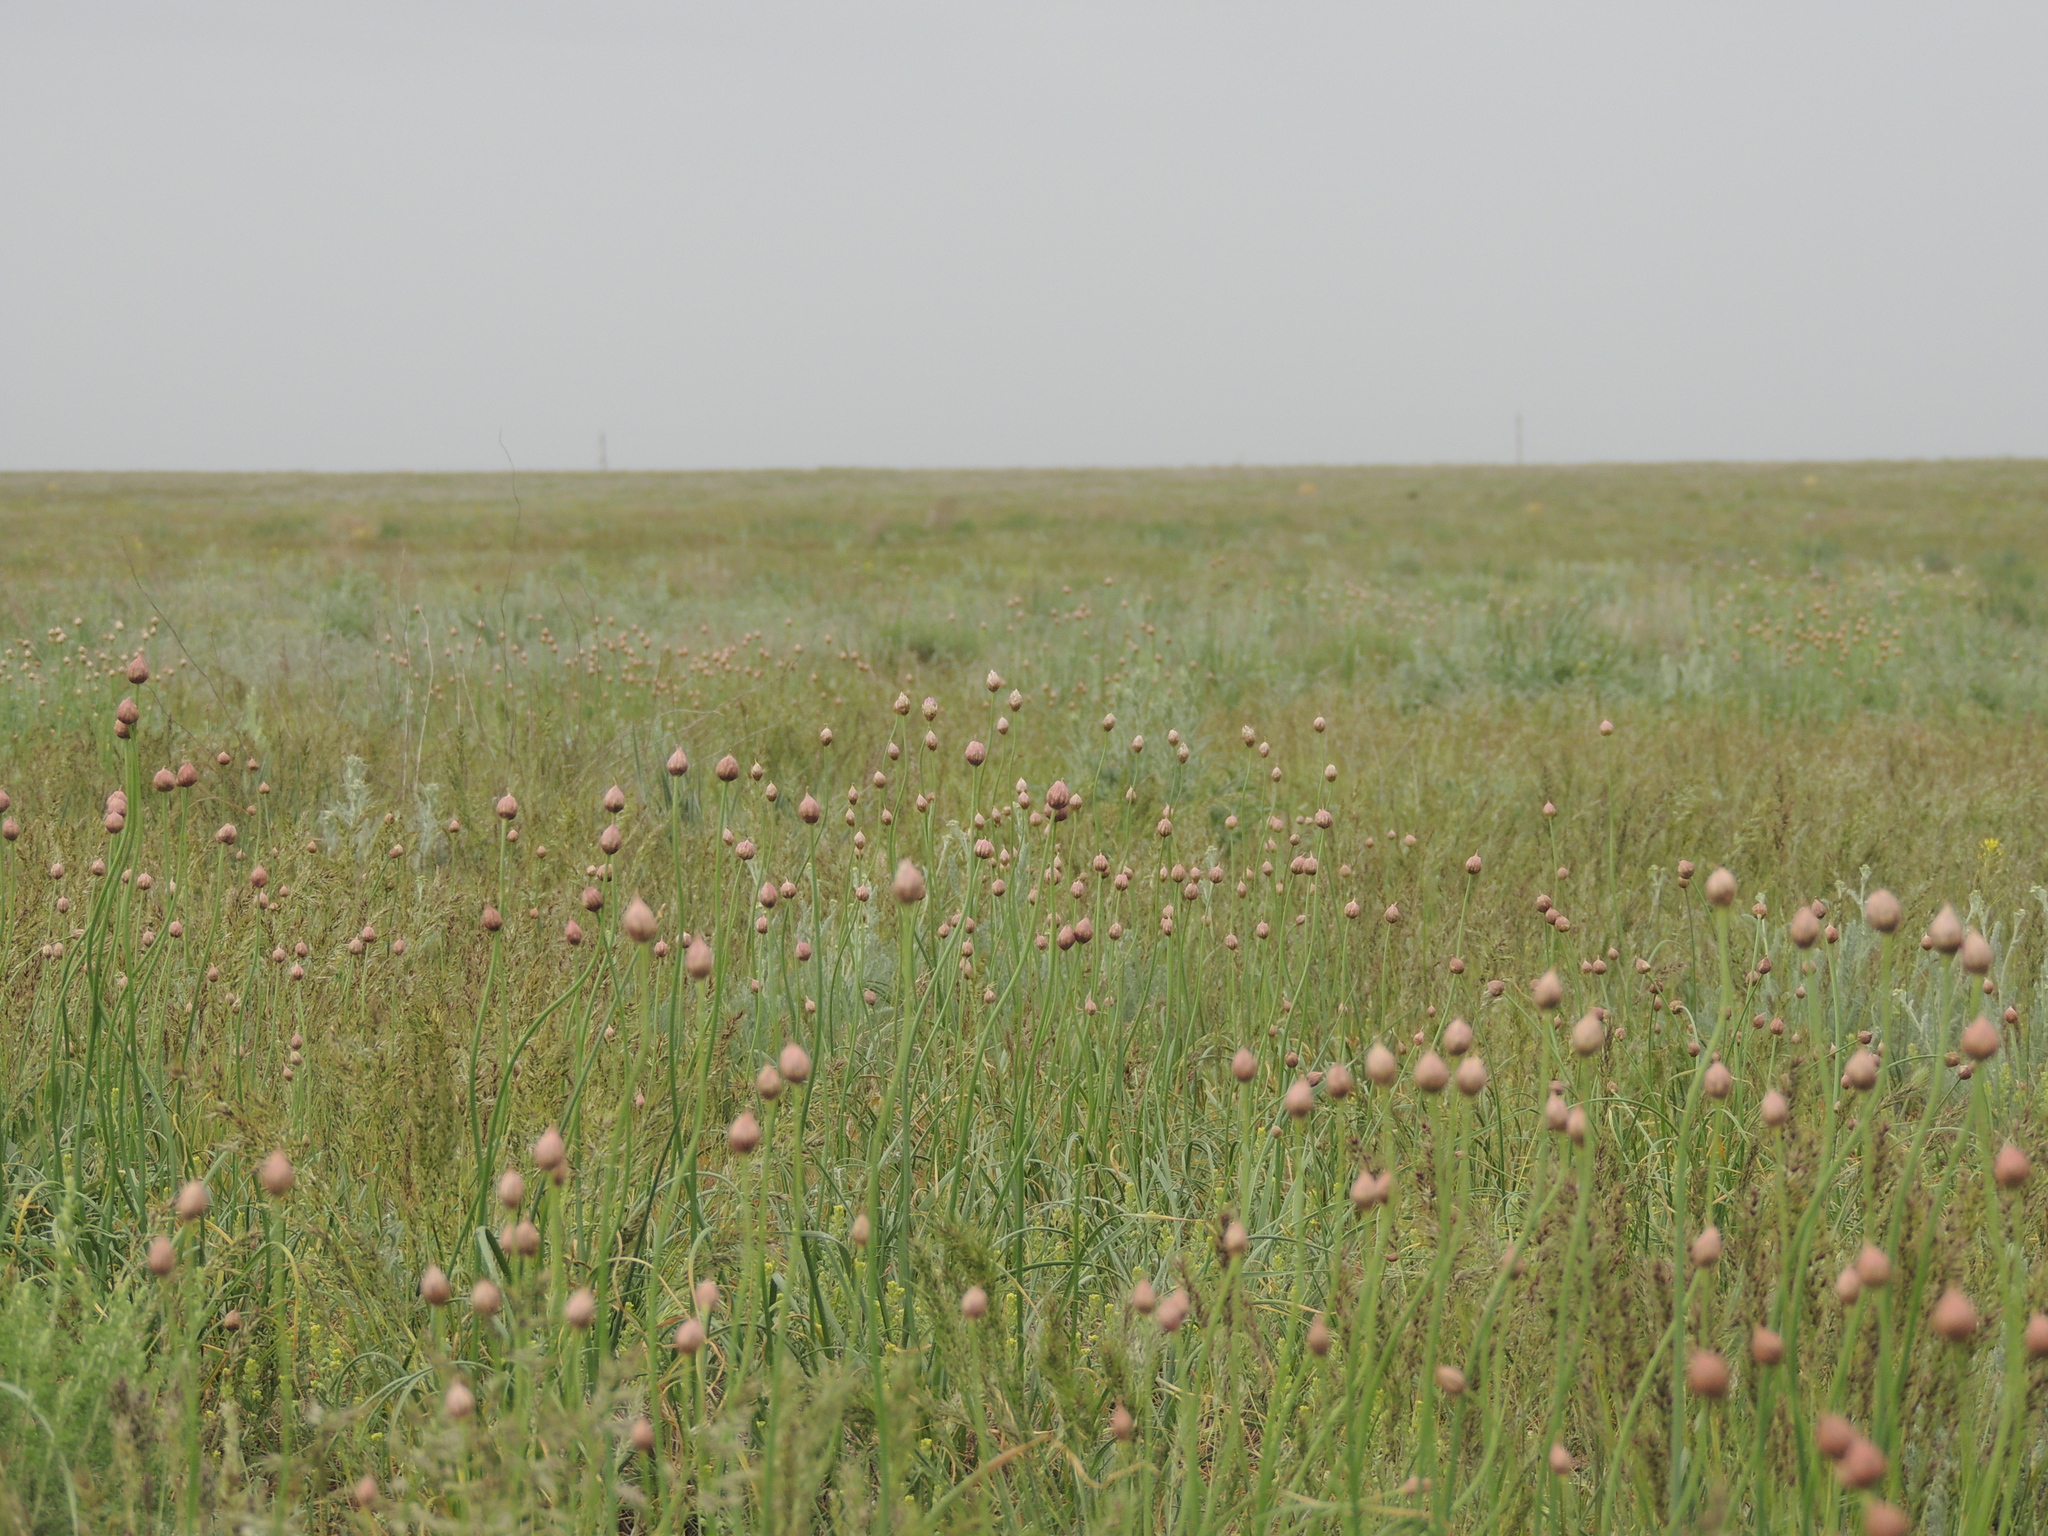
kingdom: Plantae
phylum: Tracheophyta
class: Liliopsida
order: Asparagales
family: Amaryllidaceae
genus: Allium
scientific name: Allium inderiense
